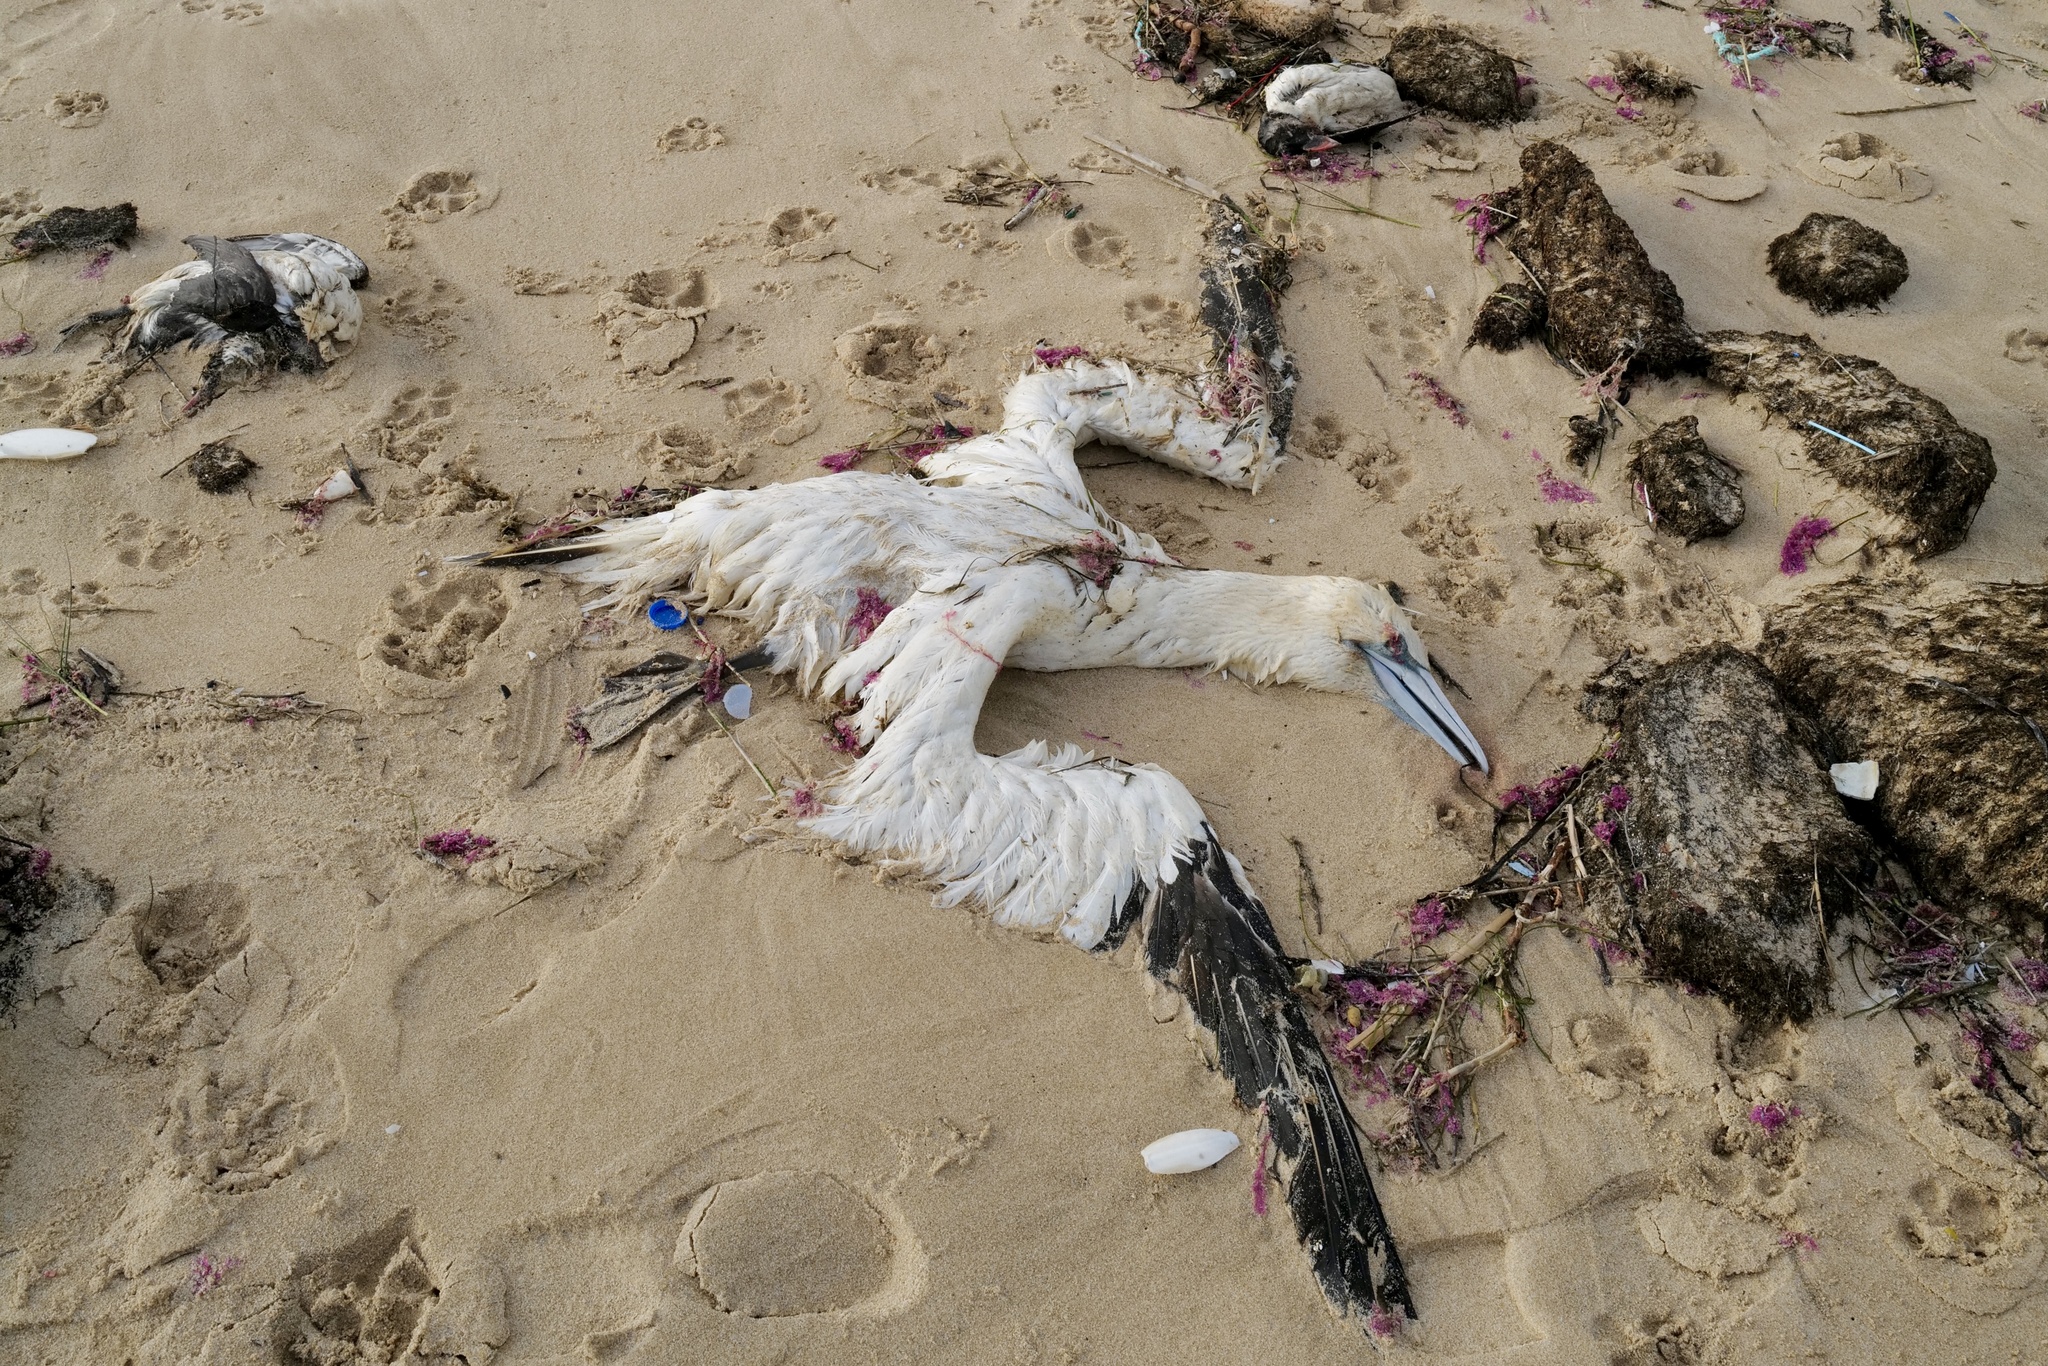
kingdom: Animalia
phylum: Chordata
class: Aves
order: Suliformes
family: Sulidae
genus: Morus
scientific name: Morus bassanus
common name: Northern gannet
